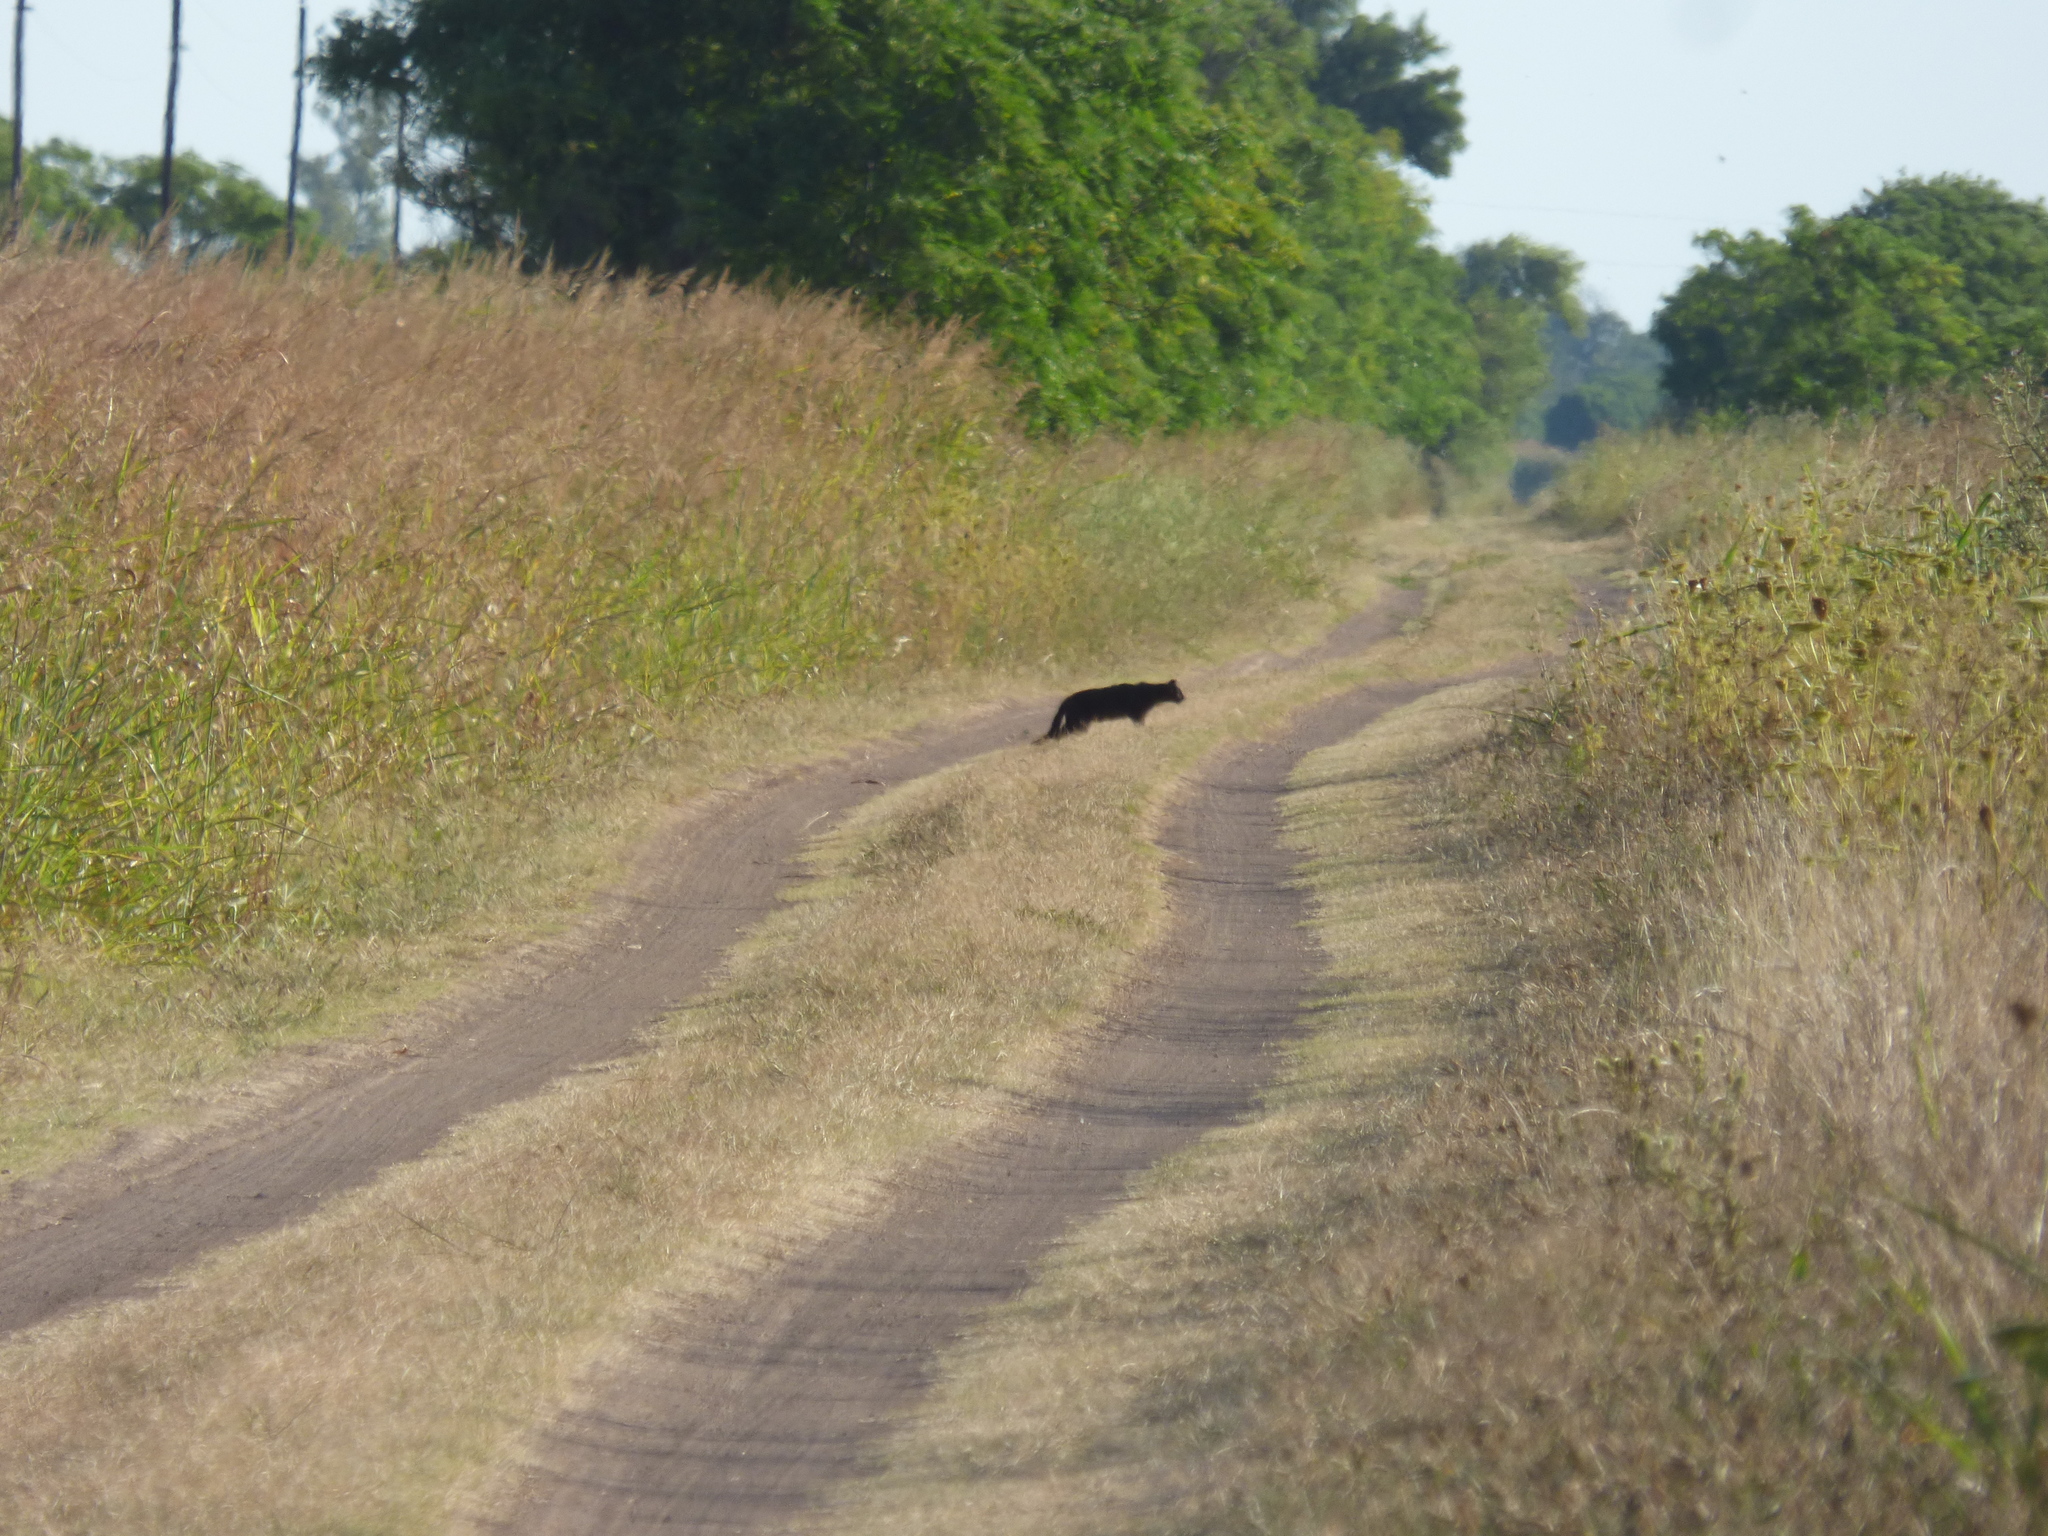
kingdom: Animalia
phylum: Chordata
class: Mammalia
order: Carnivora
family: Felidae
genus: Leopardus
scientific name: Leopardus geoffroyi
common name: Geoffroy's cat
